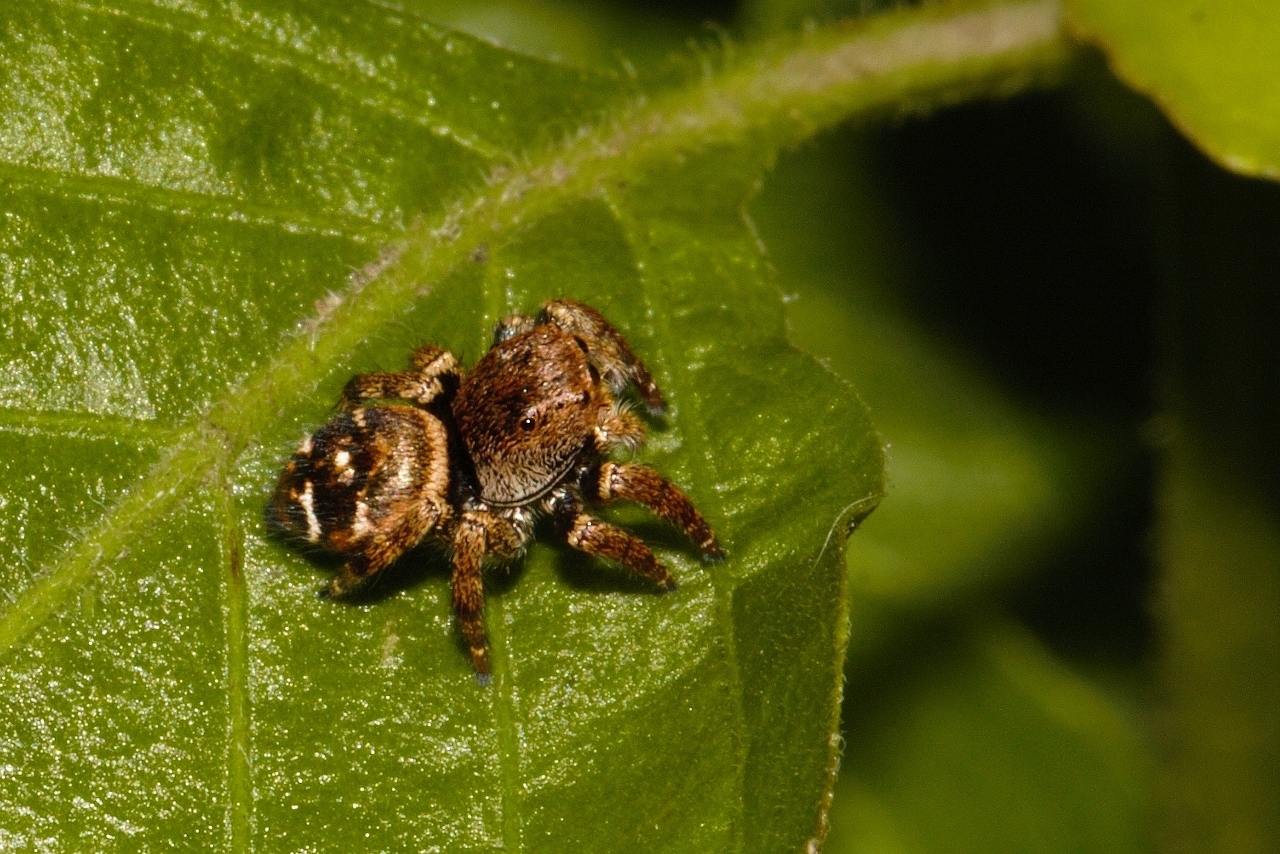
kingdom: Animalia
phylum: Arthropoda
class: Arachnida
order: Araneae
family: Salticidae
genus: Baryphas
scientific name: Baryphas ahenus
